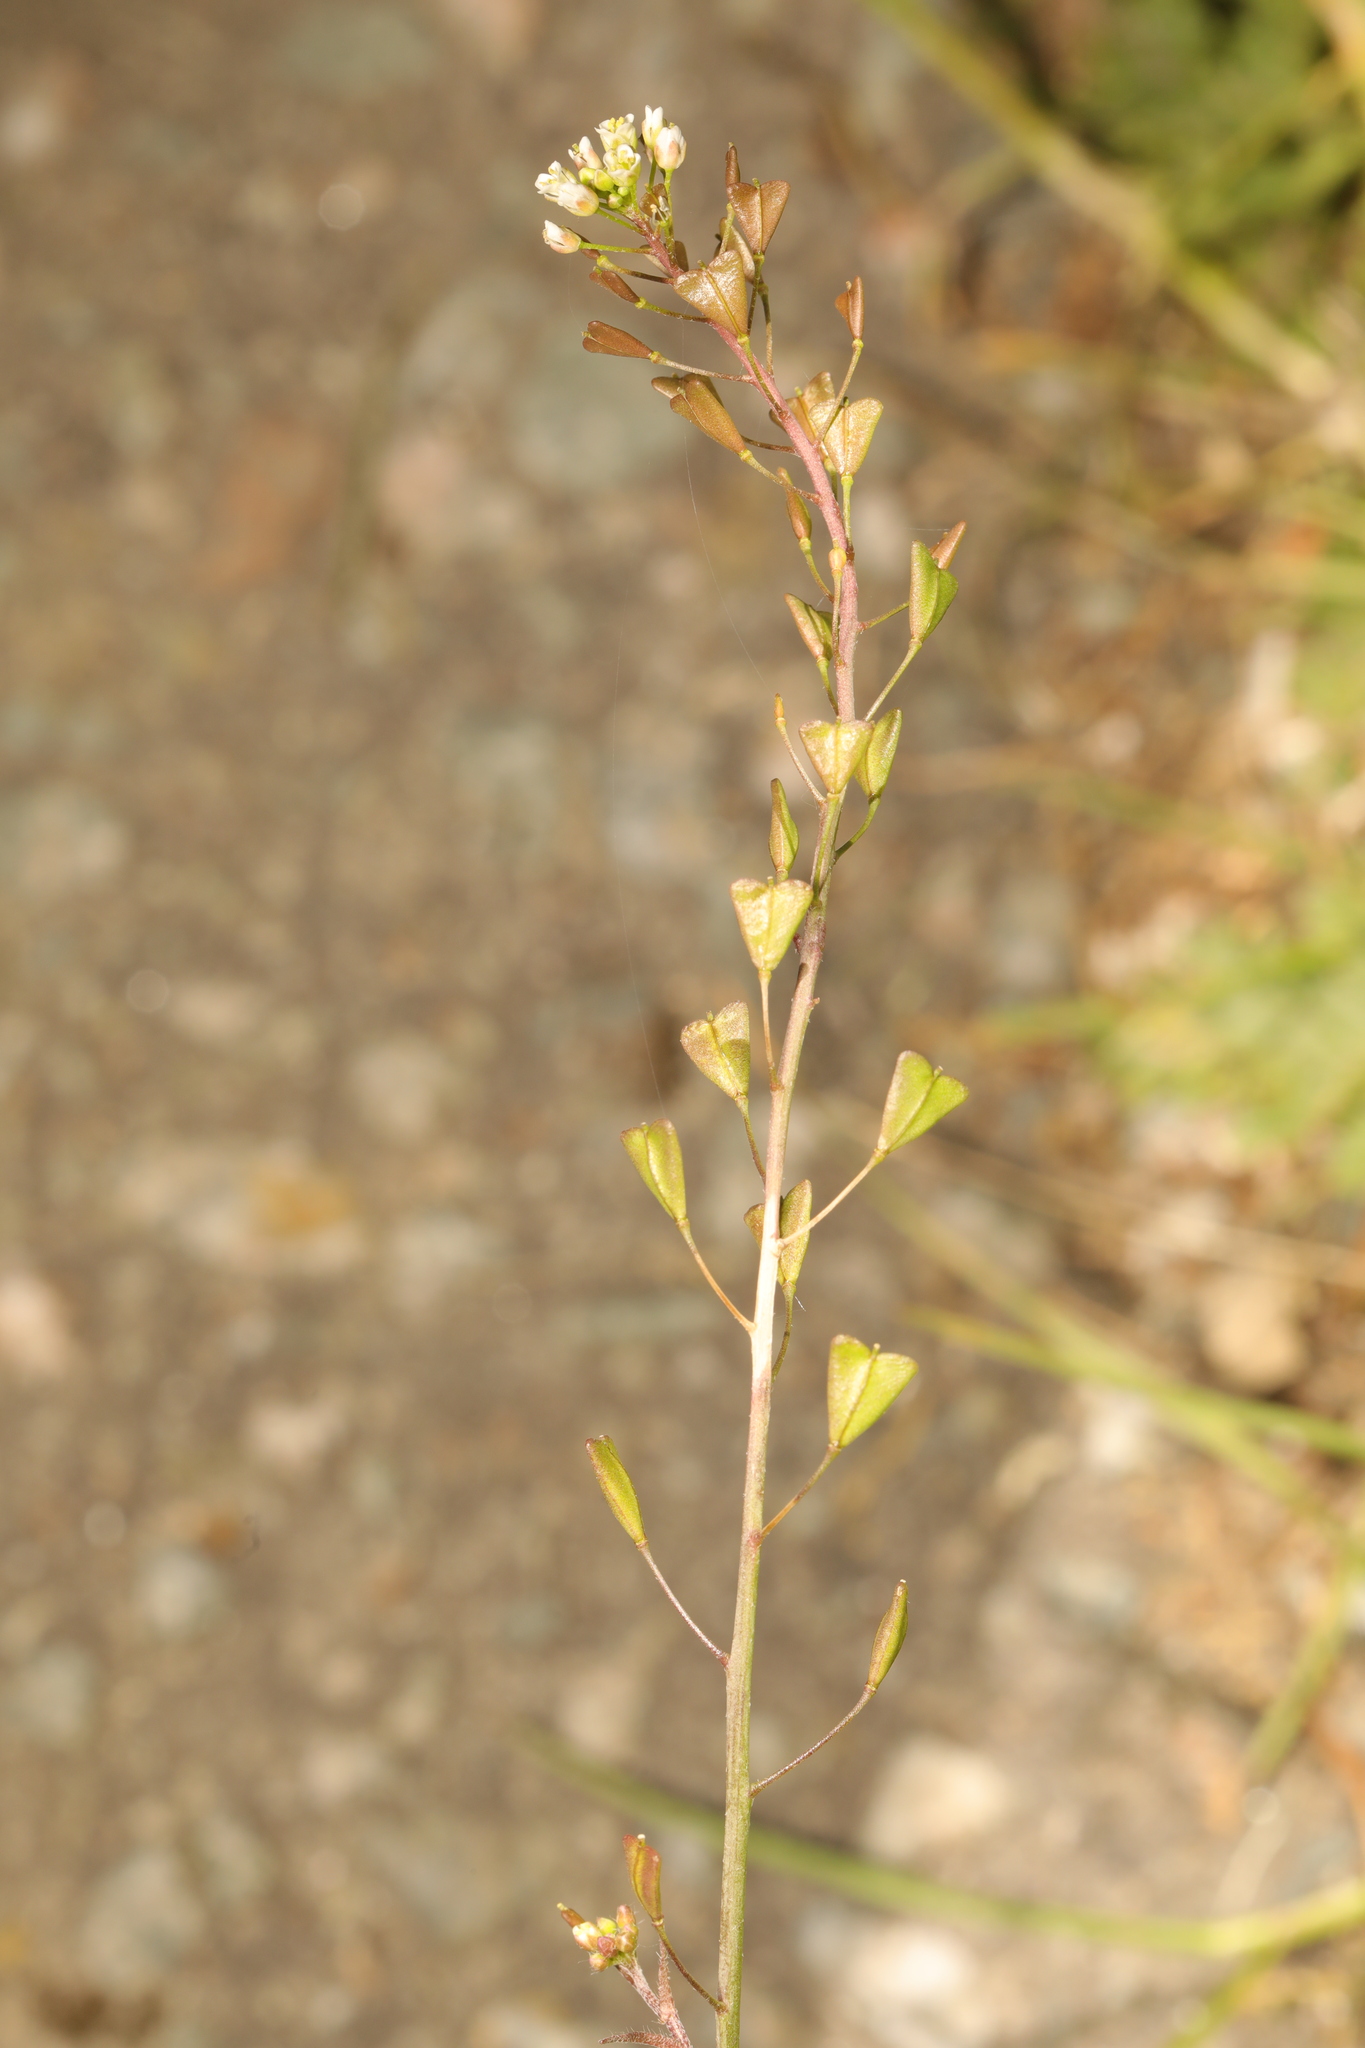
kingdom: Plantae
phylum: Tracheophyta
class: Magnoliopsida
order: Brassicales
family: Brassicaceae
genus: Capsella
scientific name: Capsella bursa-pastoris
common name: Shepherd's purse
